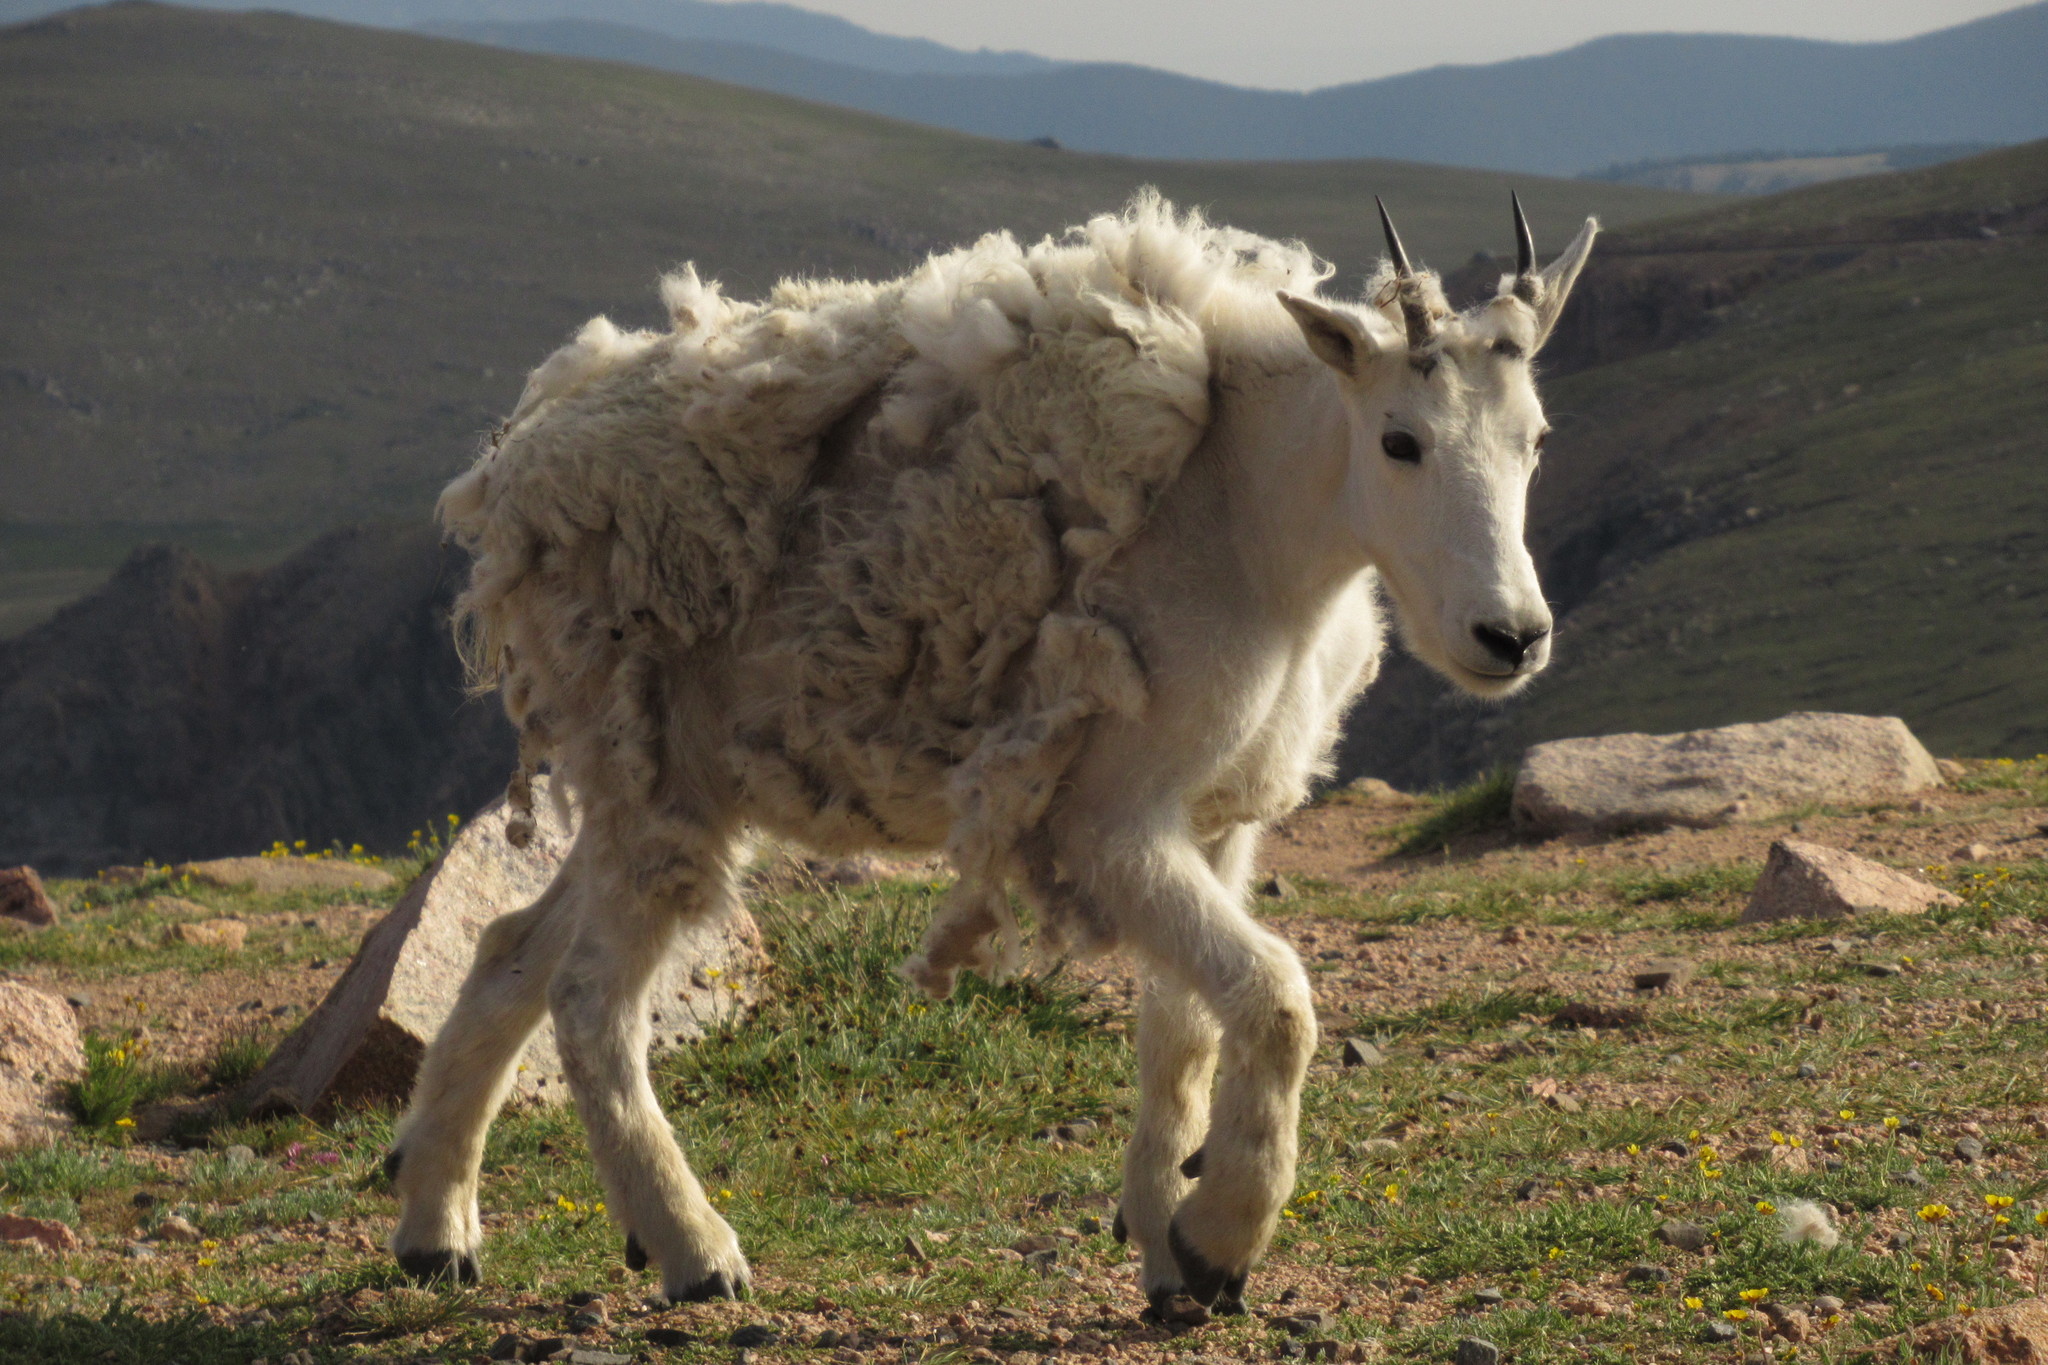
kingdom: Animalia
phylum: Chordata
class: Mammalia
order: Artiodactyla
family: Bovidae
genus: Oreamnos
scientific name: Oreamnos americanus
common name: Mountain goat
